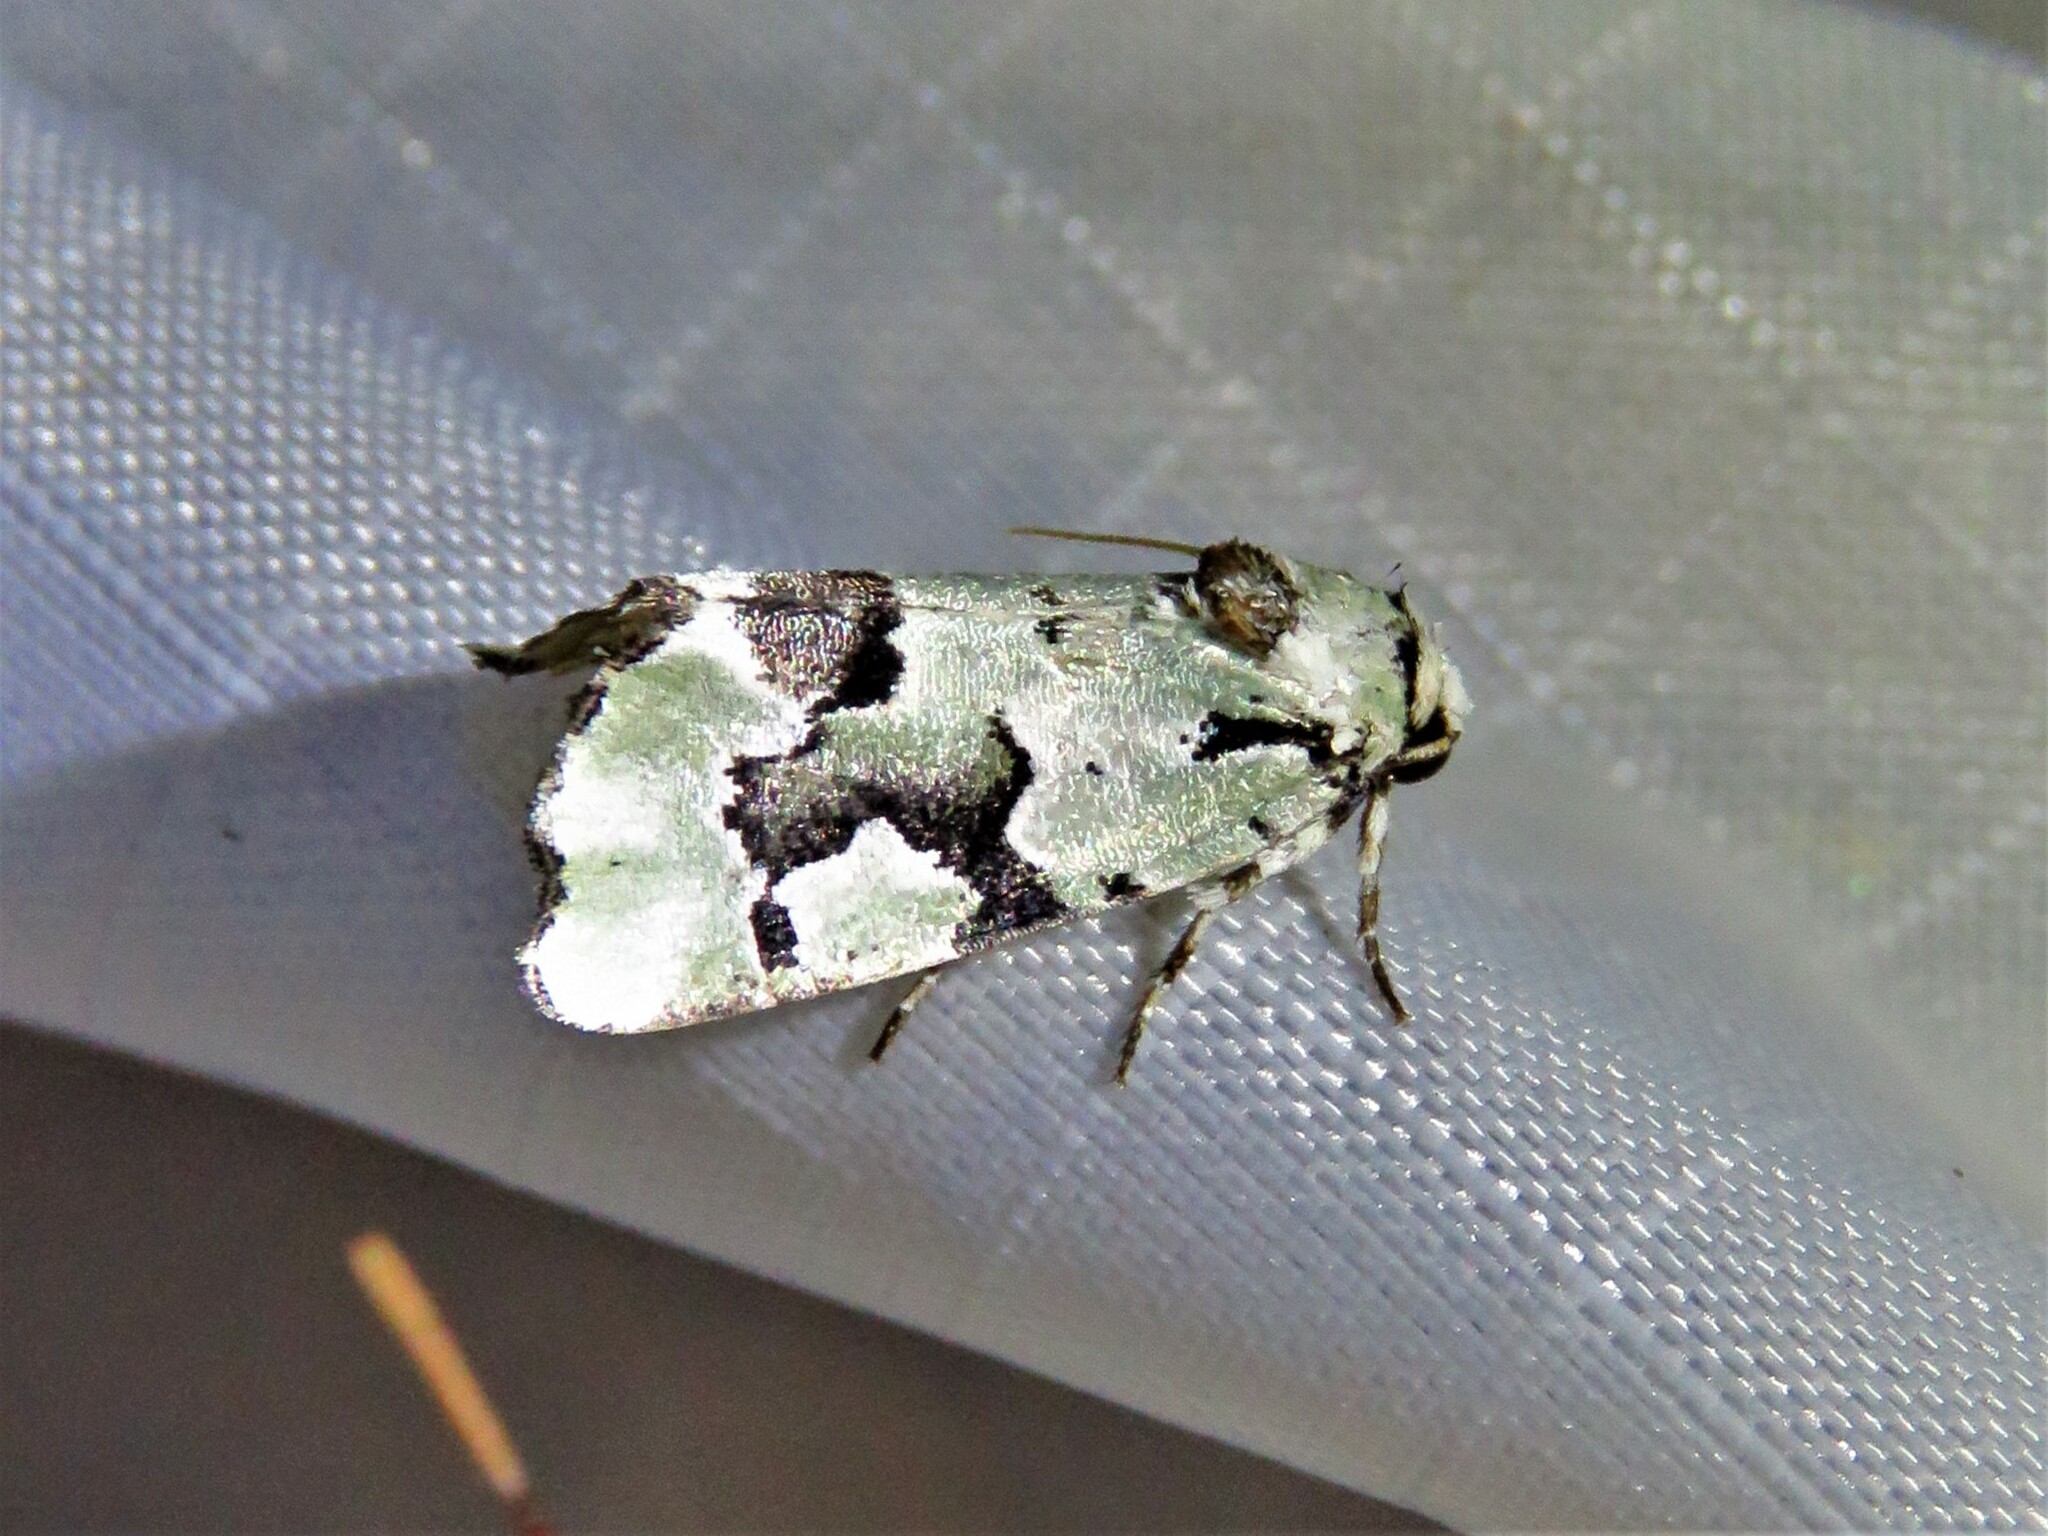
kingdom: Animalia
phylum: Arthropoda
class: Insecta
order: Lepidoptera
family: Noctuidae
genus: Emarginea
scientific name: Emarginea percara
